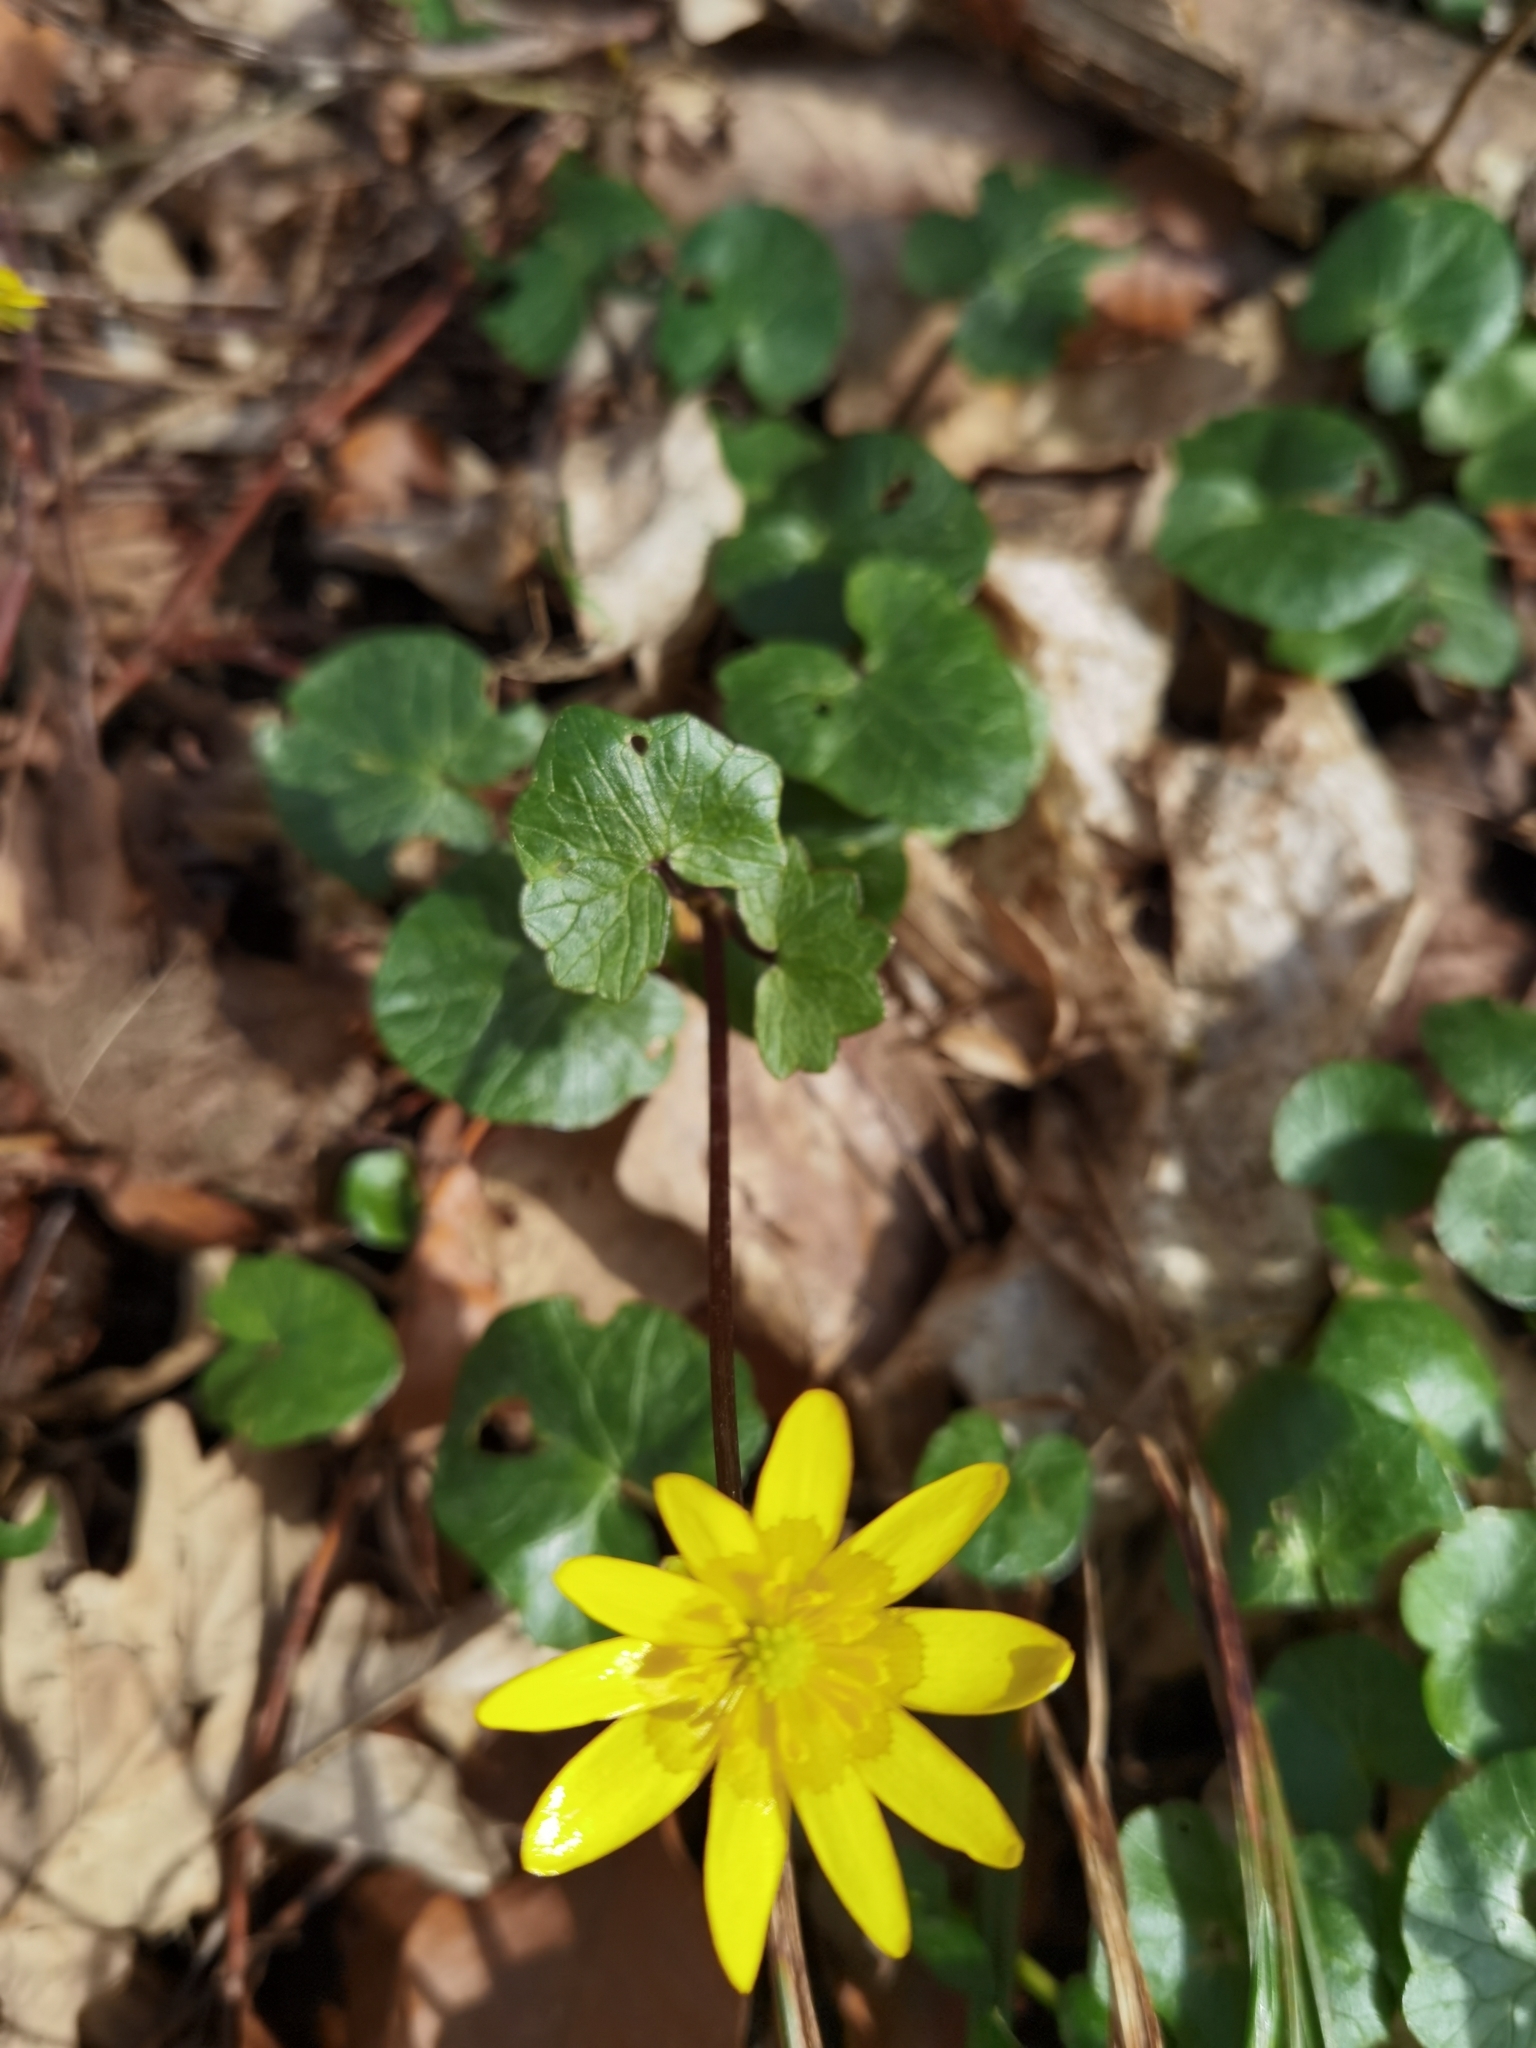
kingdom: Plantae
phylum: Tracheophyta
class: Magnoliopsida
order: Ranunculales
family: Ranunculaceae
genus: Ficaria
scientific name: Ficaria verna
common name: Lesser celandine
